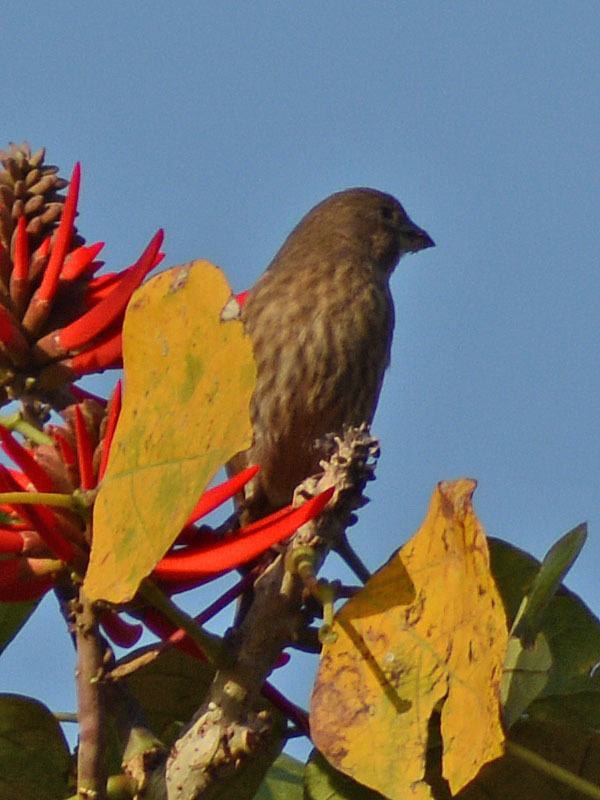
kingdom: Animalia
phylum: Chordata
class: Aves
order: Passeriformes
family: Fringillidae
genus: Haemorhous
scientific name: Haemorhous mexicanus
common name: House finch
